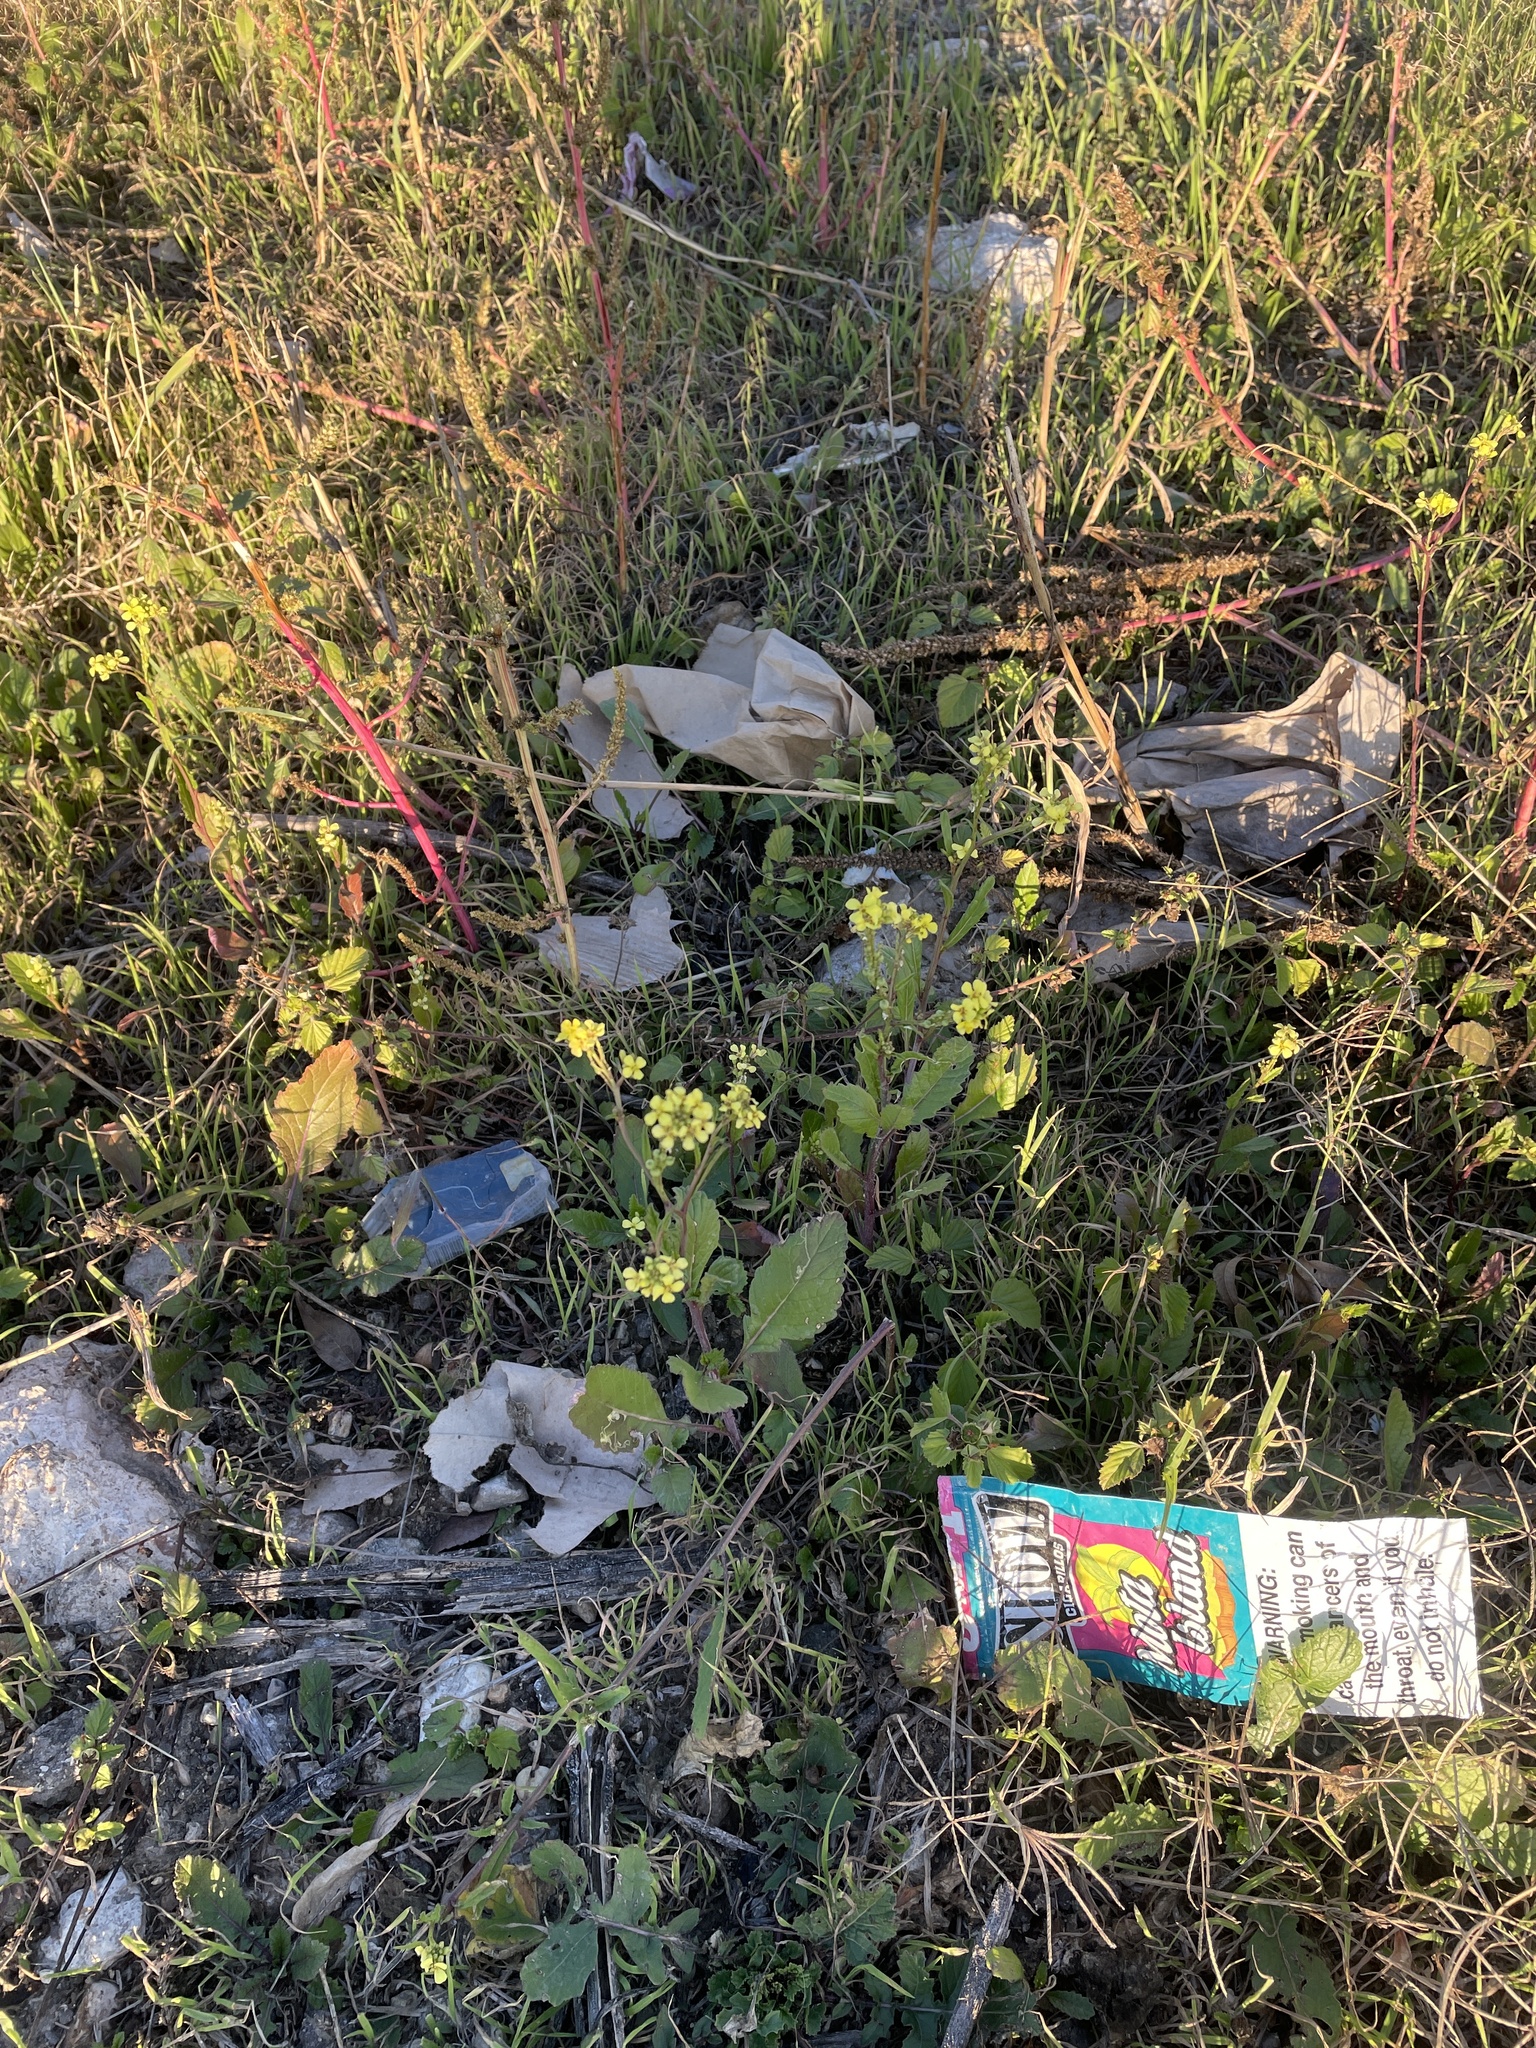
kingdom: Plantae
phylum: Tracheophyta
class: Magnoliopsida
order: Brassicales
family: Brassicaceae
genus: Rapistrum
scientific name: Rapistrum rugosum
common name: Annual bastardcabbage
